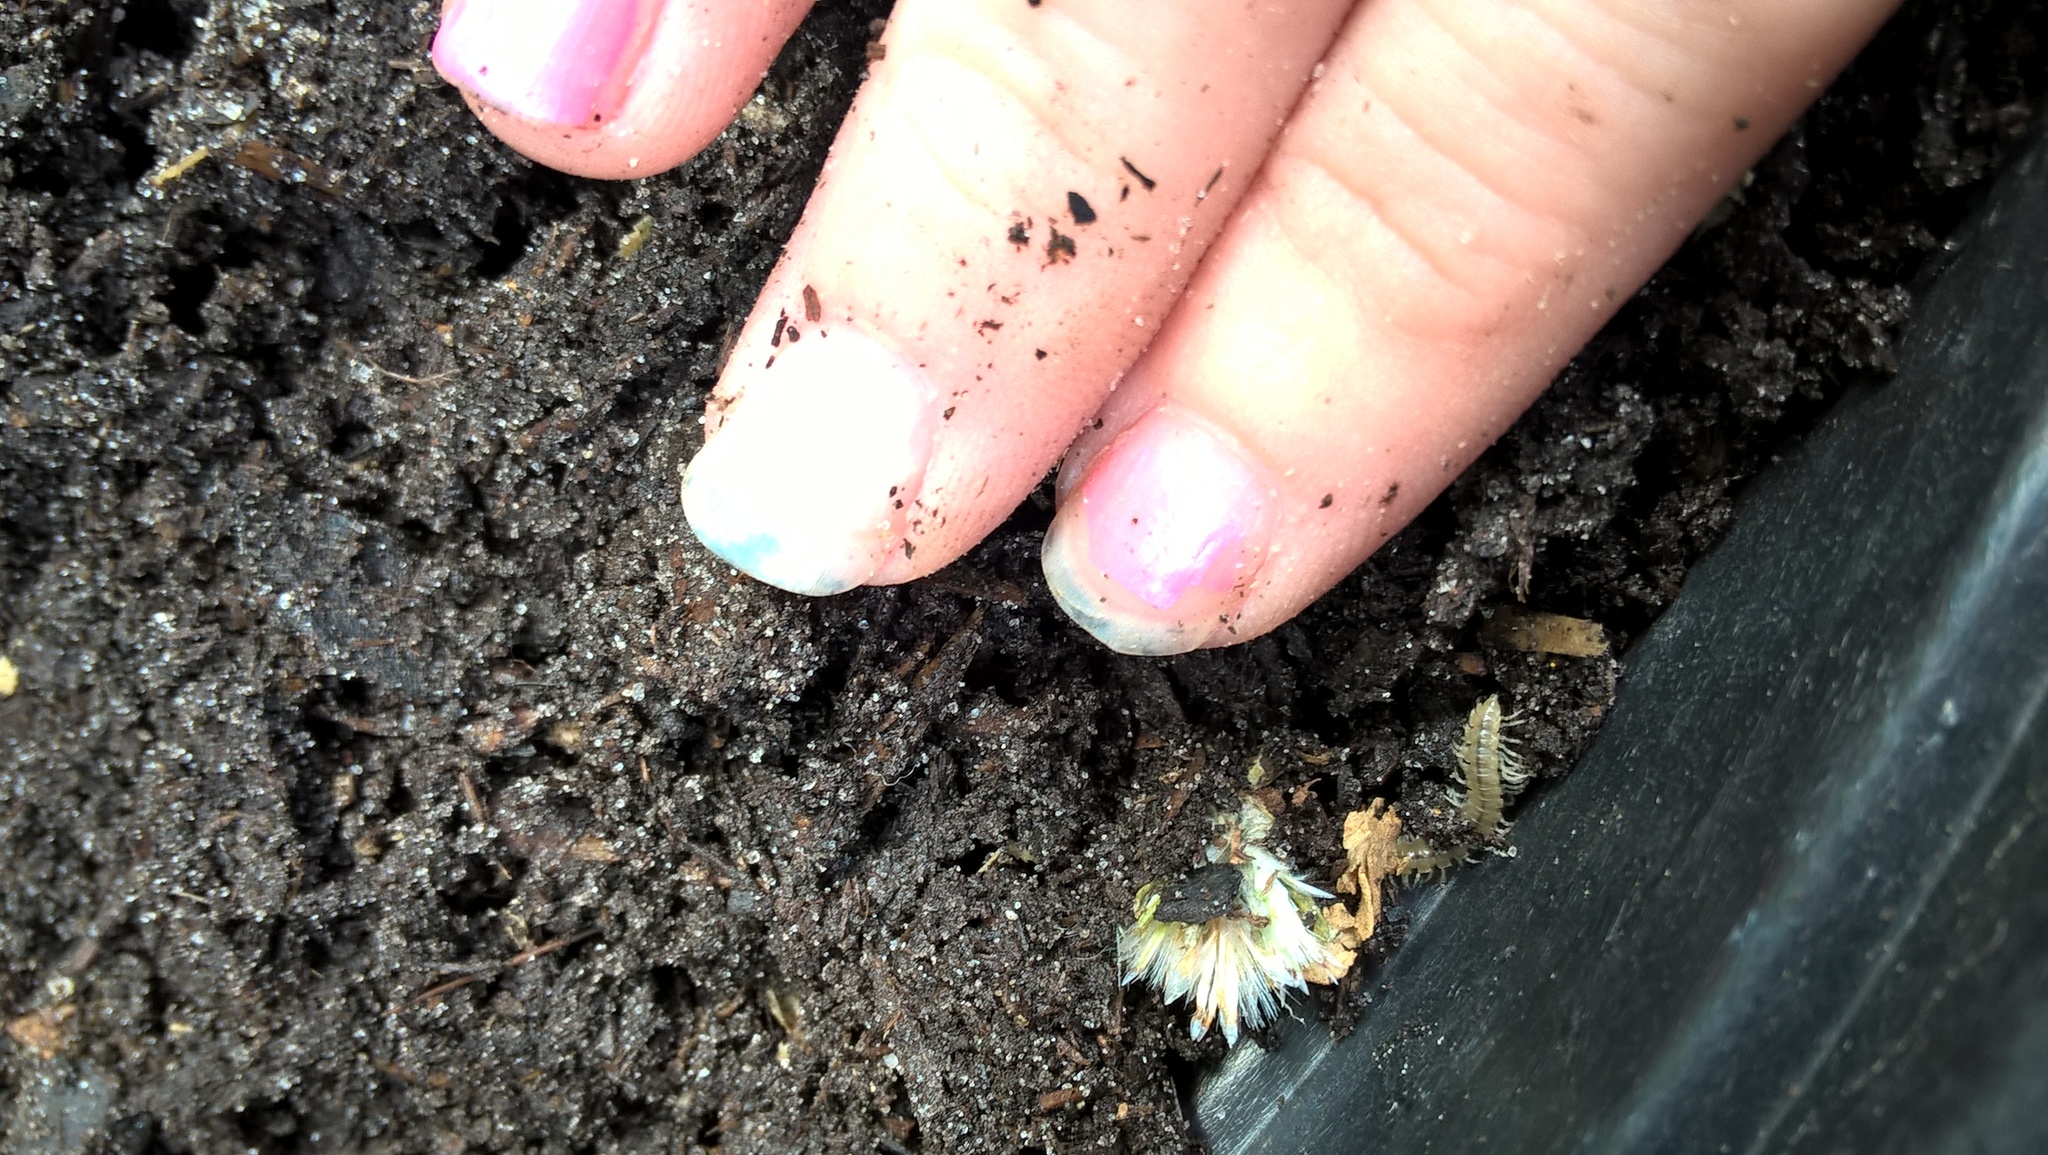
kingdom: Animalia
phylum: Arthropoda
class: Diplopoda
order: Polydesmida
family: Paradoxosomatidae
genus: Oxidus
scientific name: Oxidus gracilis
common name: Greenhouse millipede
